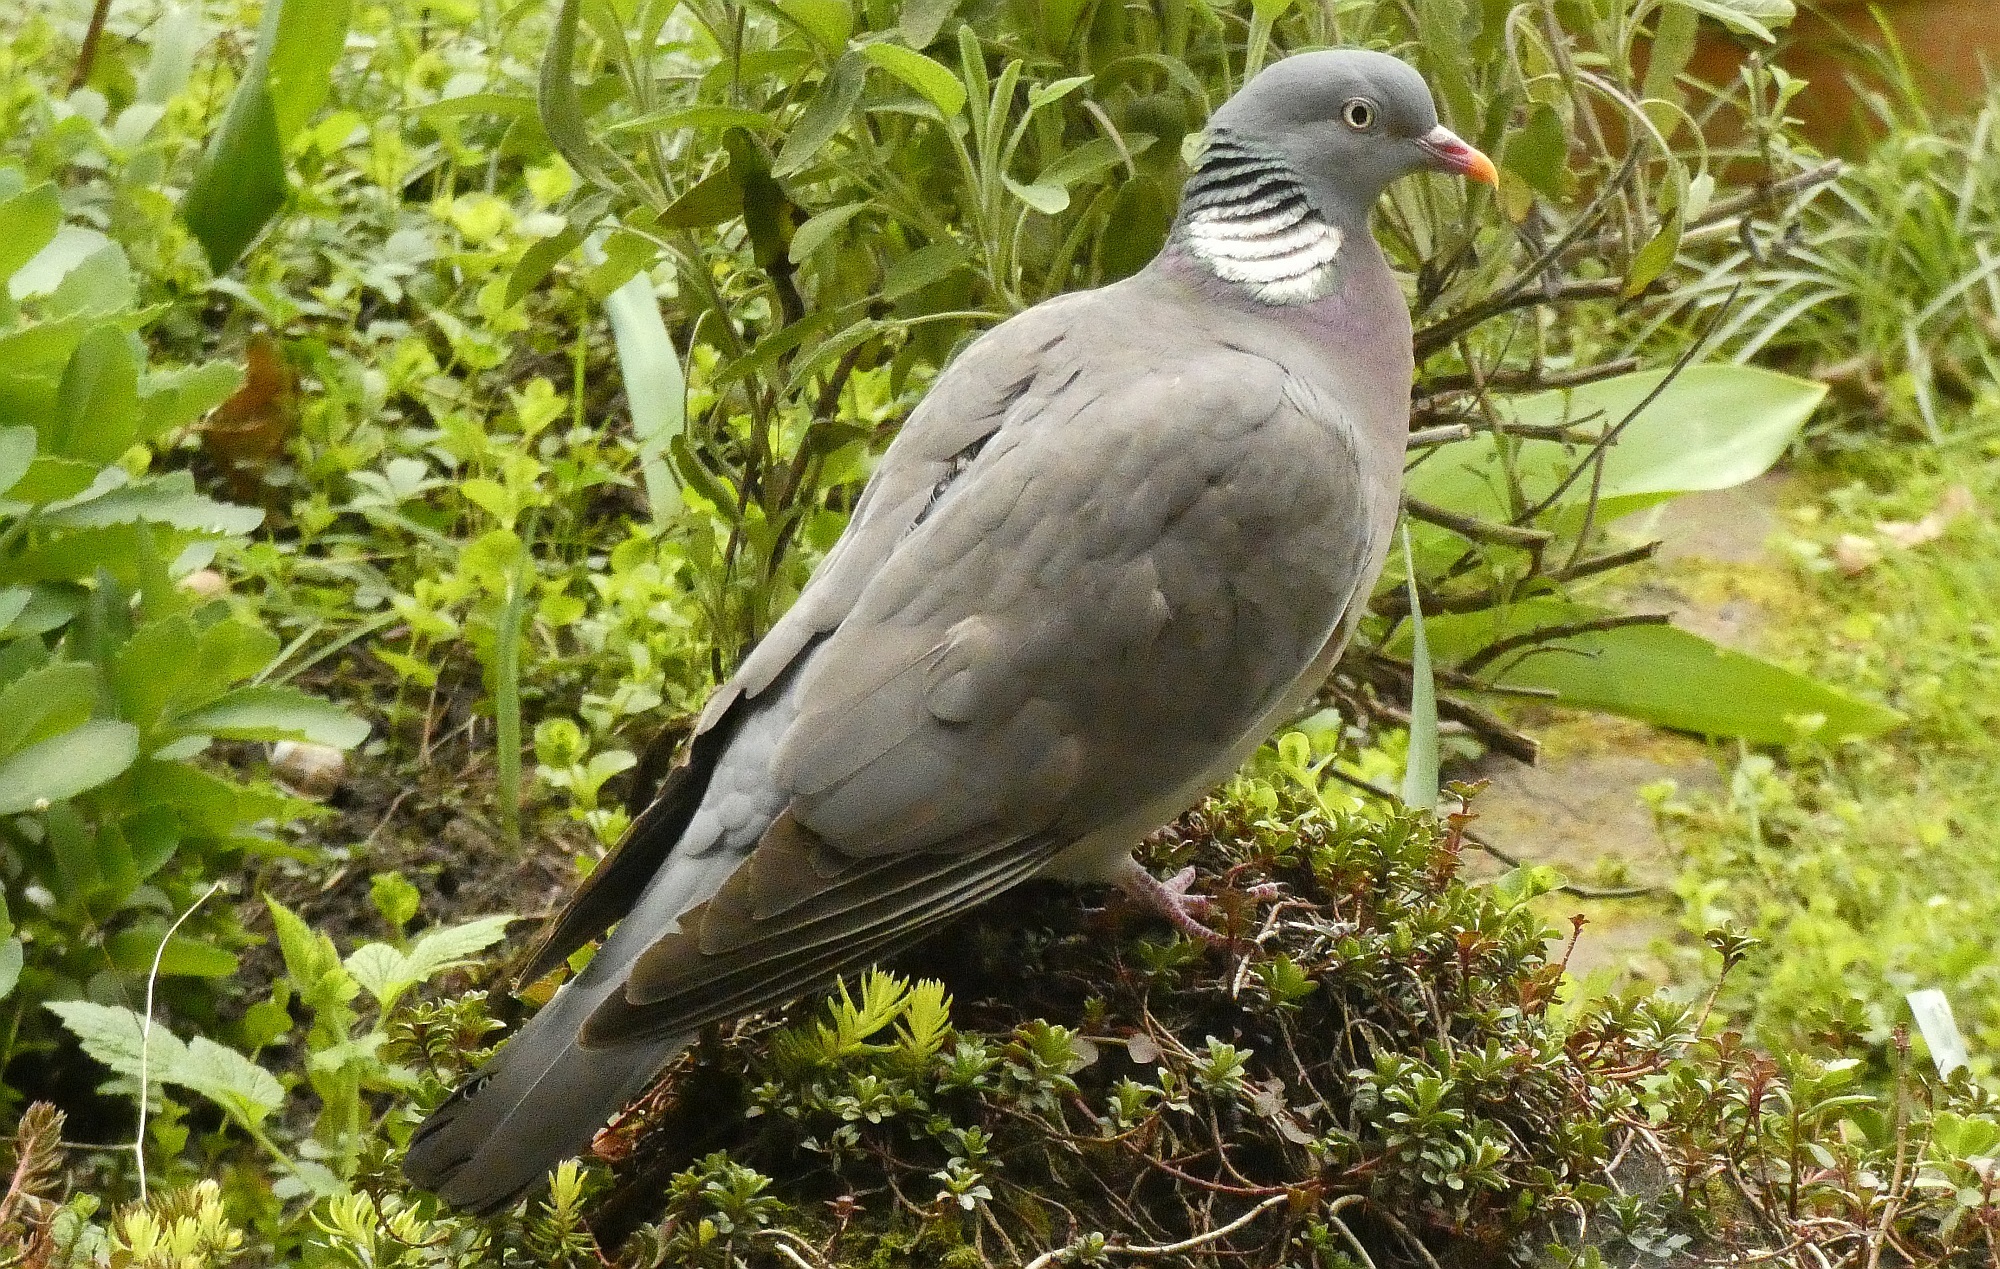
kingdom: Animalia
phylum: Chordata
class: Aves
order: Columbiformes
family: Columbidae
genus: Columba
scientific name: Columba palumbus
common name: Common wood pigeon
